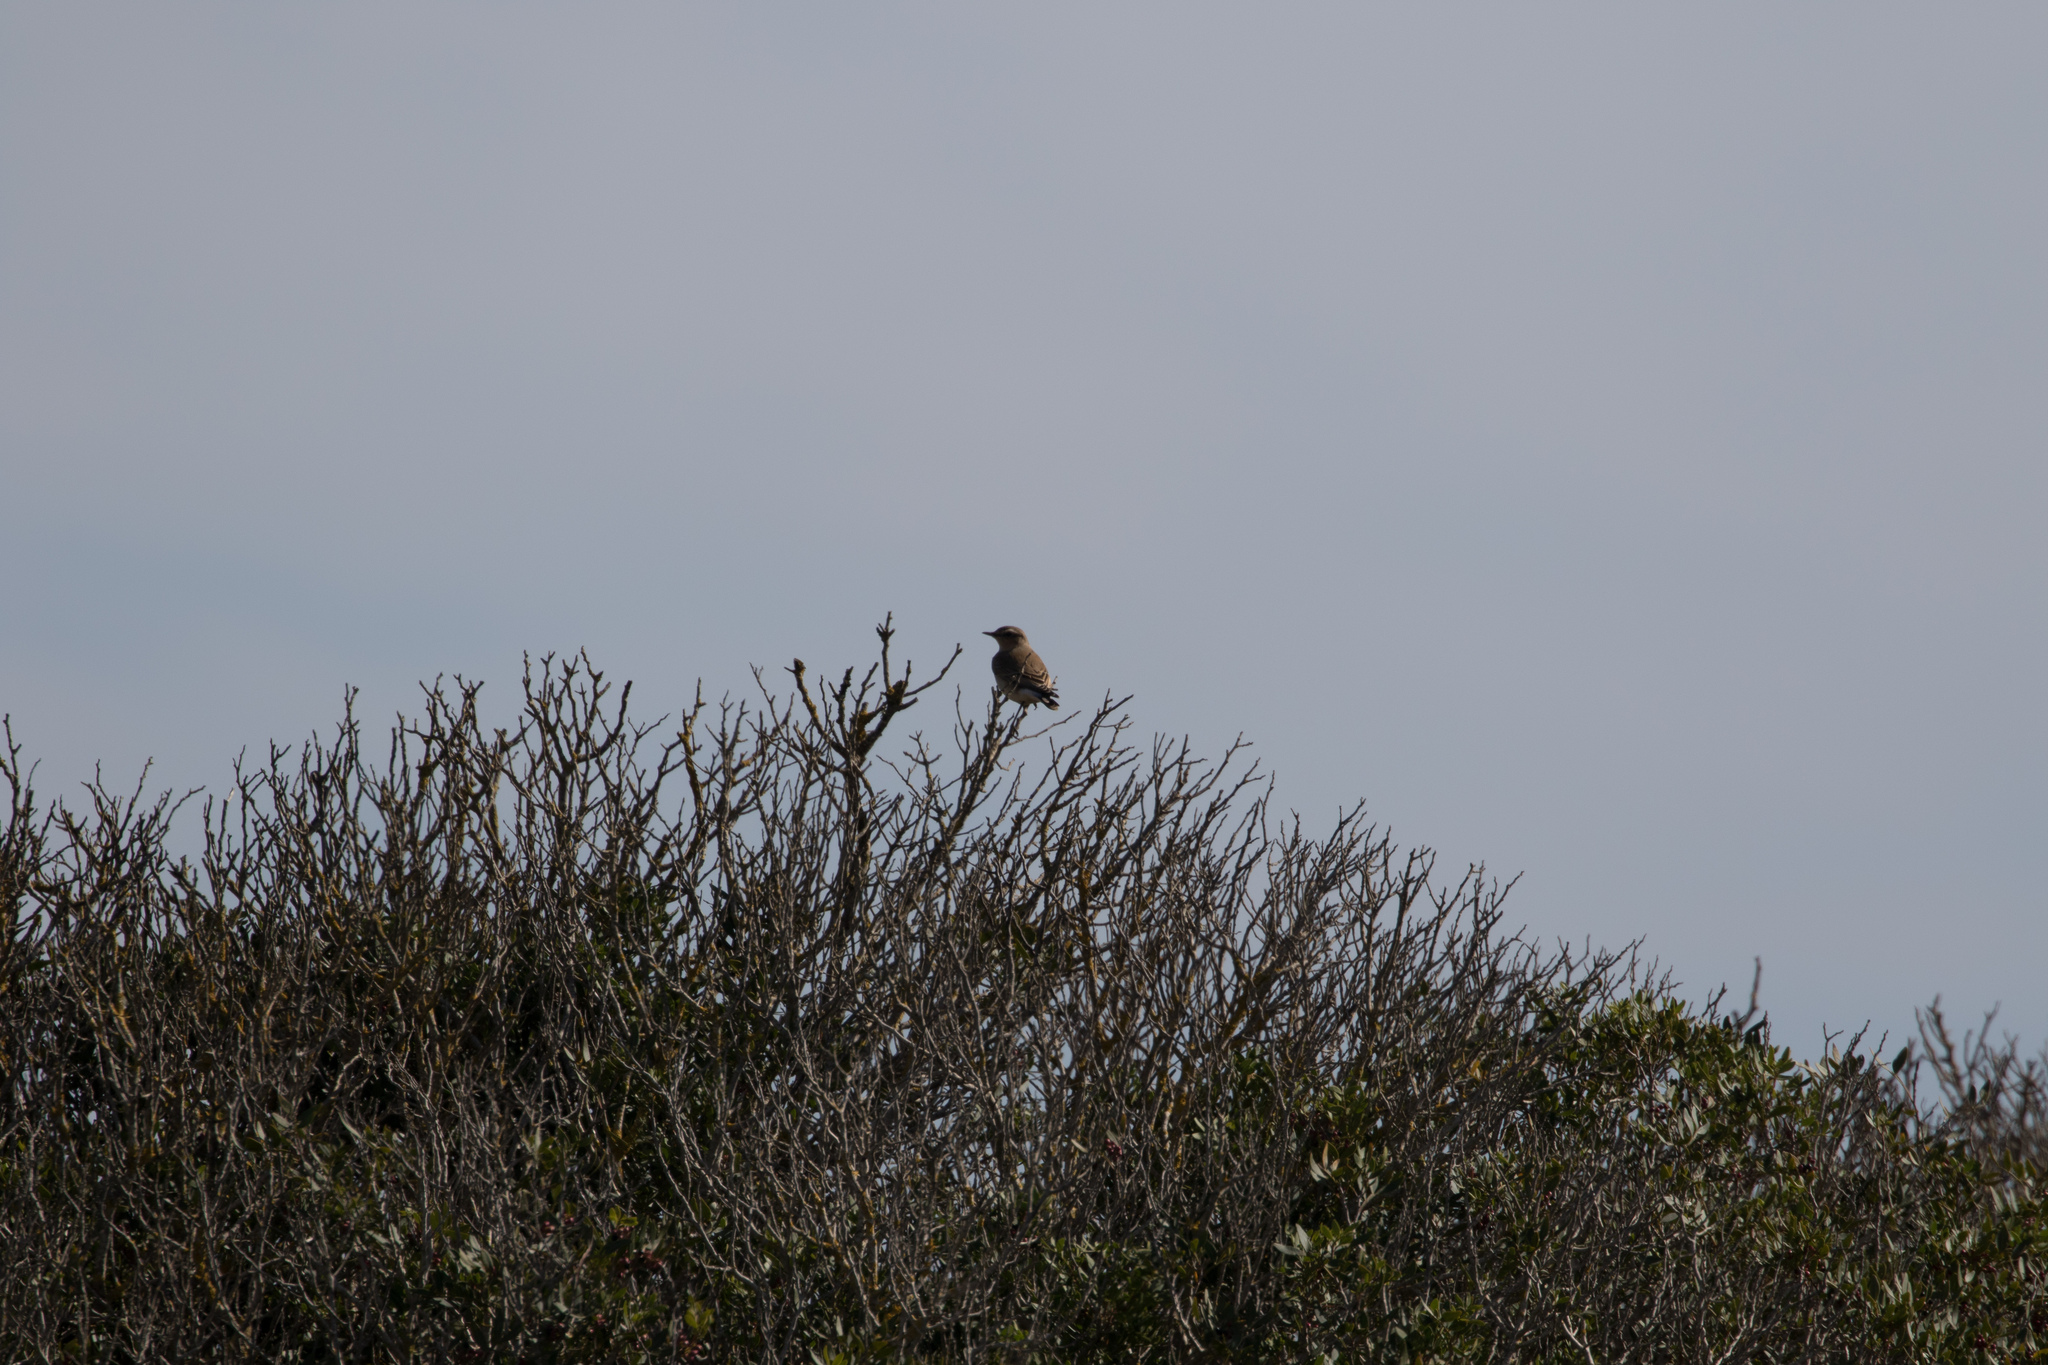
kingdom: Animalia
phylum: Chordata
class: Aves
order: Passeriformes
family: Muscicapidae
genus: Oenanthe
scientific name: Oenanthe oenanthe
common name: Northern wheatear
